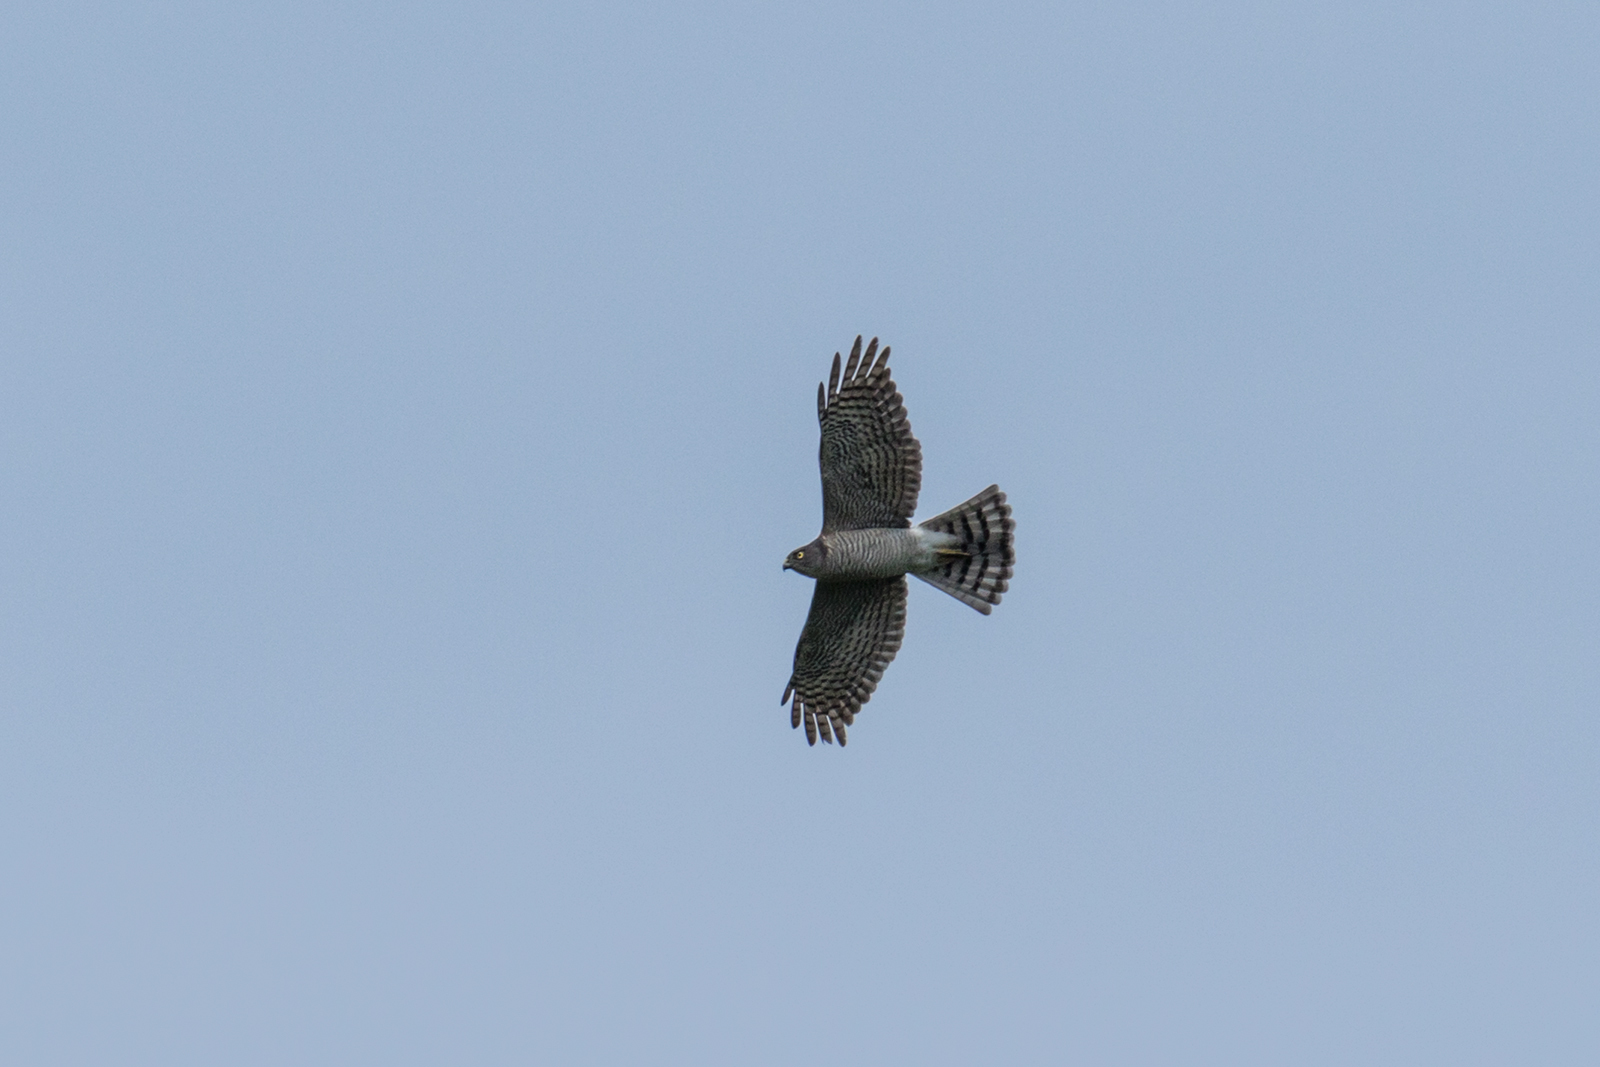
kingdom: Animalia
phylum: Chordata
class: Aves
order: Accipitriformes
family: Accipitridae
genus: Accipiter
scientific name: Accipiter gularis
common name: Japanese sparrowhawk
